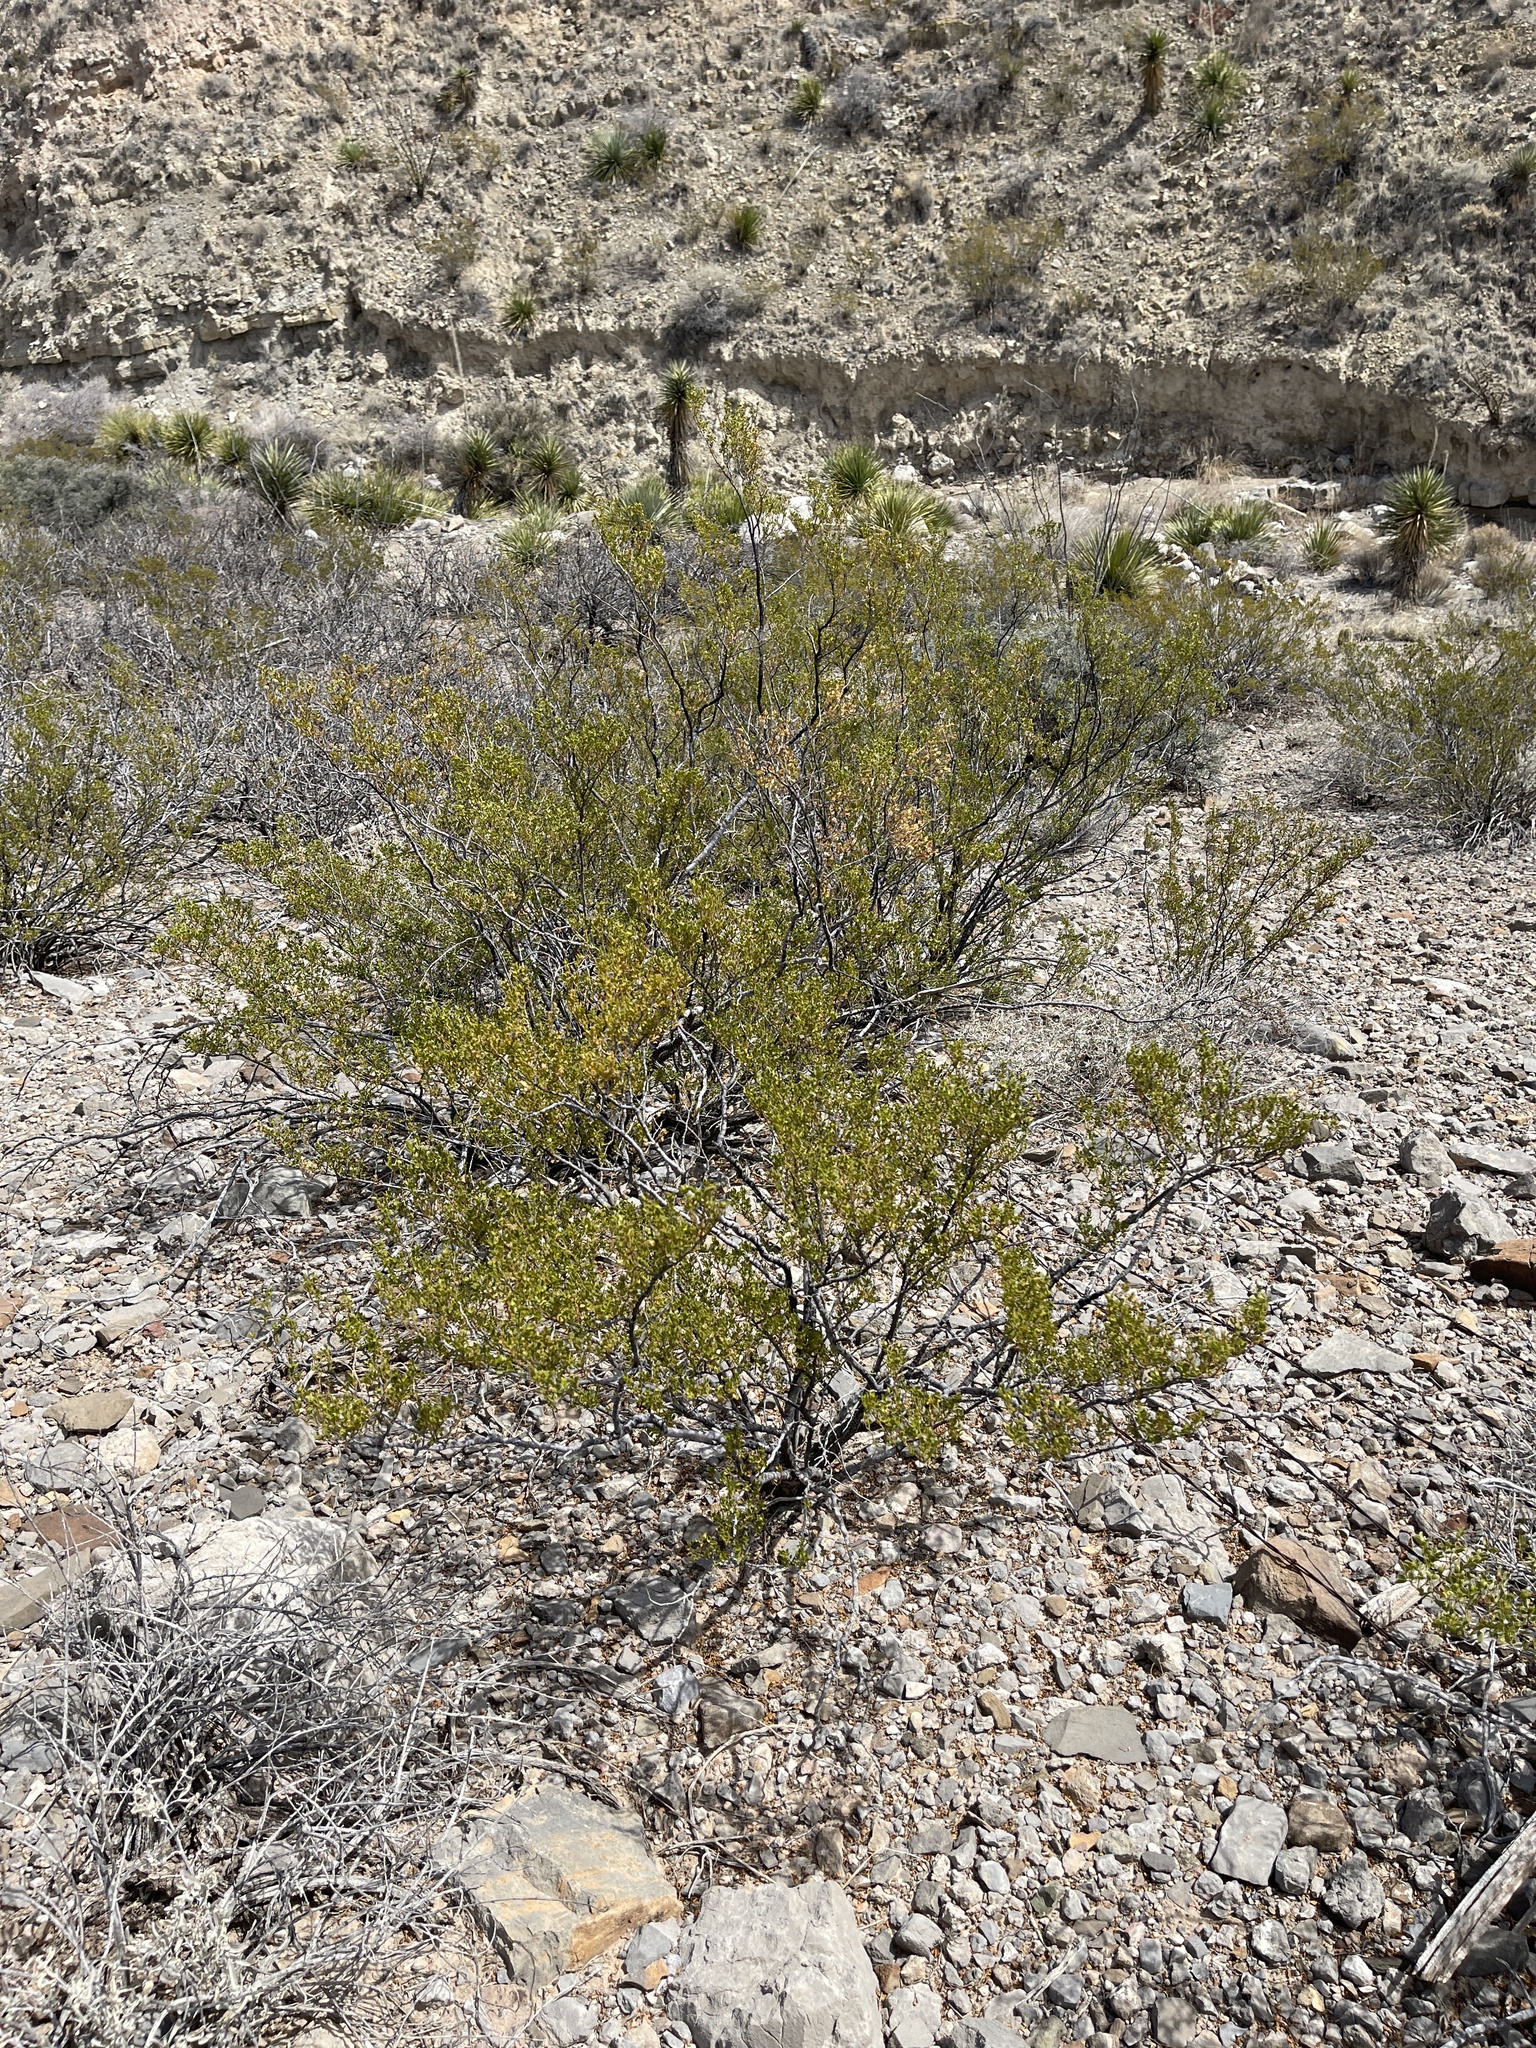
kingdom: Plantae
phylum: Tracheophyta
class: Magnoliopsida
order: Zygophyllales
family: Zygophyllaceae
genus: Larrea
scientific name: Larrea tridentata
